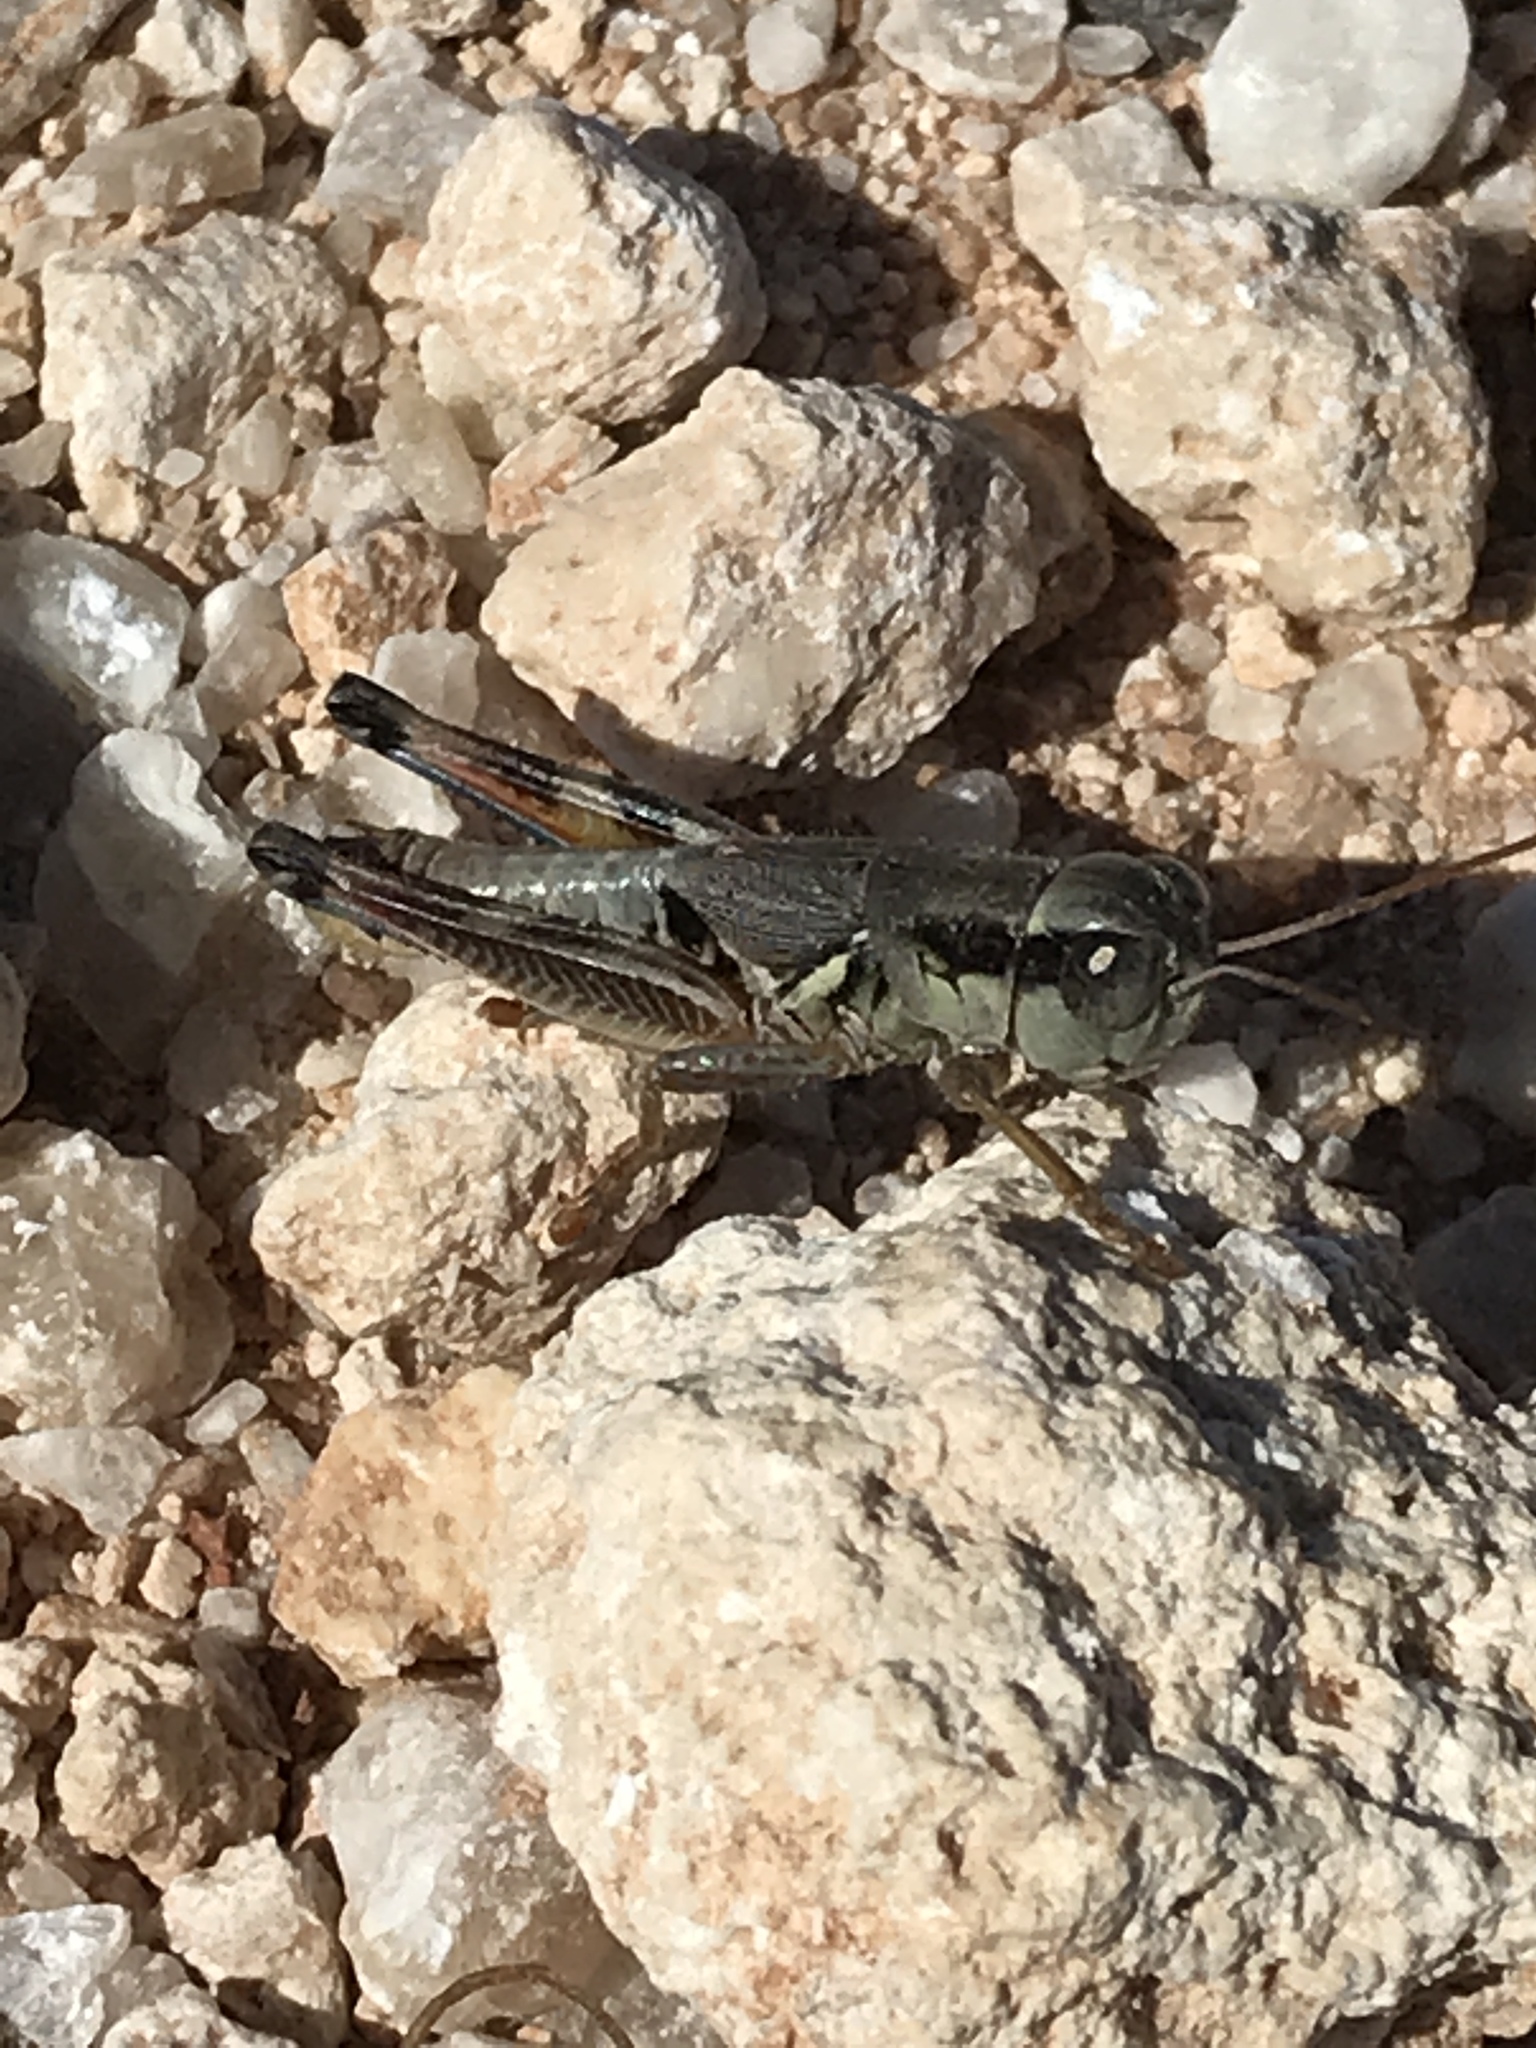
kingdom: Animalia
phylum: Arthropoda
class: Insecta
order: Orthoptera
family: Acrididae
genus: Phoetaliotes
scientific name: Phoetaliotes nebrascensis
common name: Large-headed grasshopper
